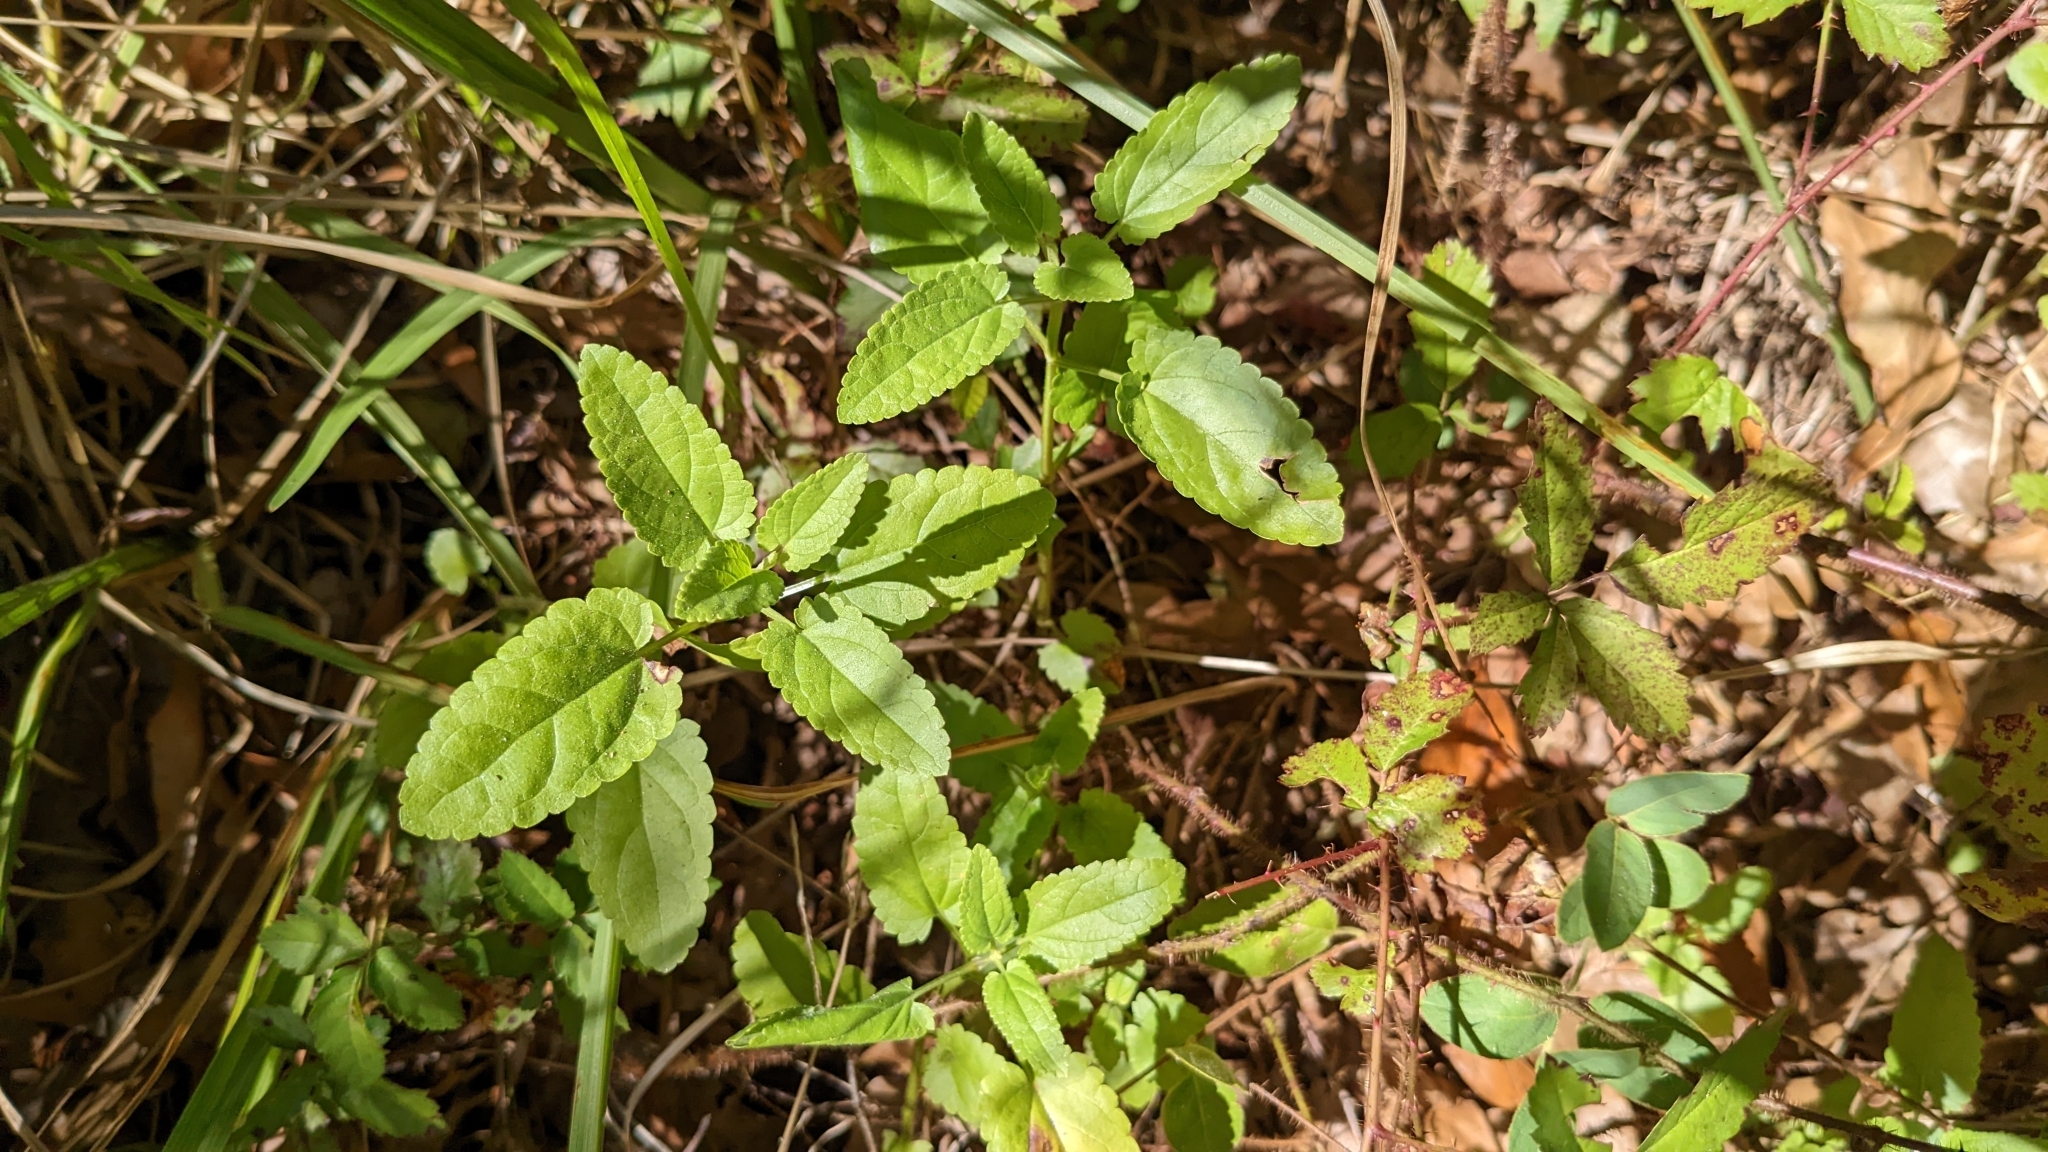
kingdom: Plantae
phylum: Tracheophyta
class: Magnoliopsida
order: Lamiales
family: Lamiaceae
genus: Stachys
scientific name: Stachys floridana
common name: Florida betony
